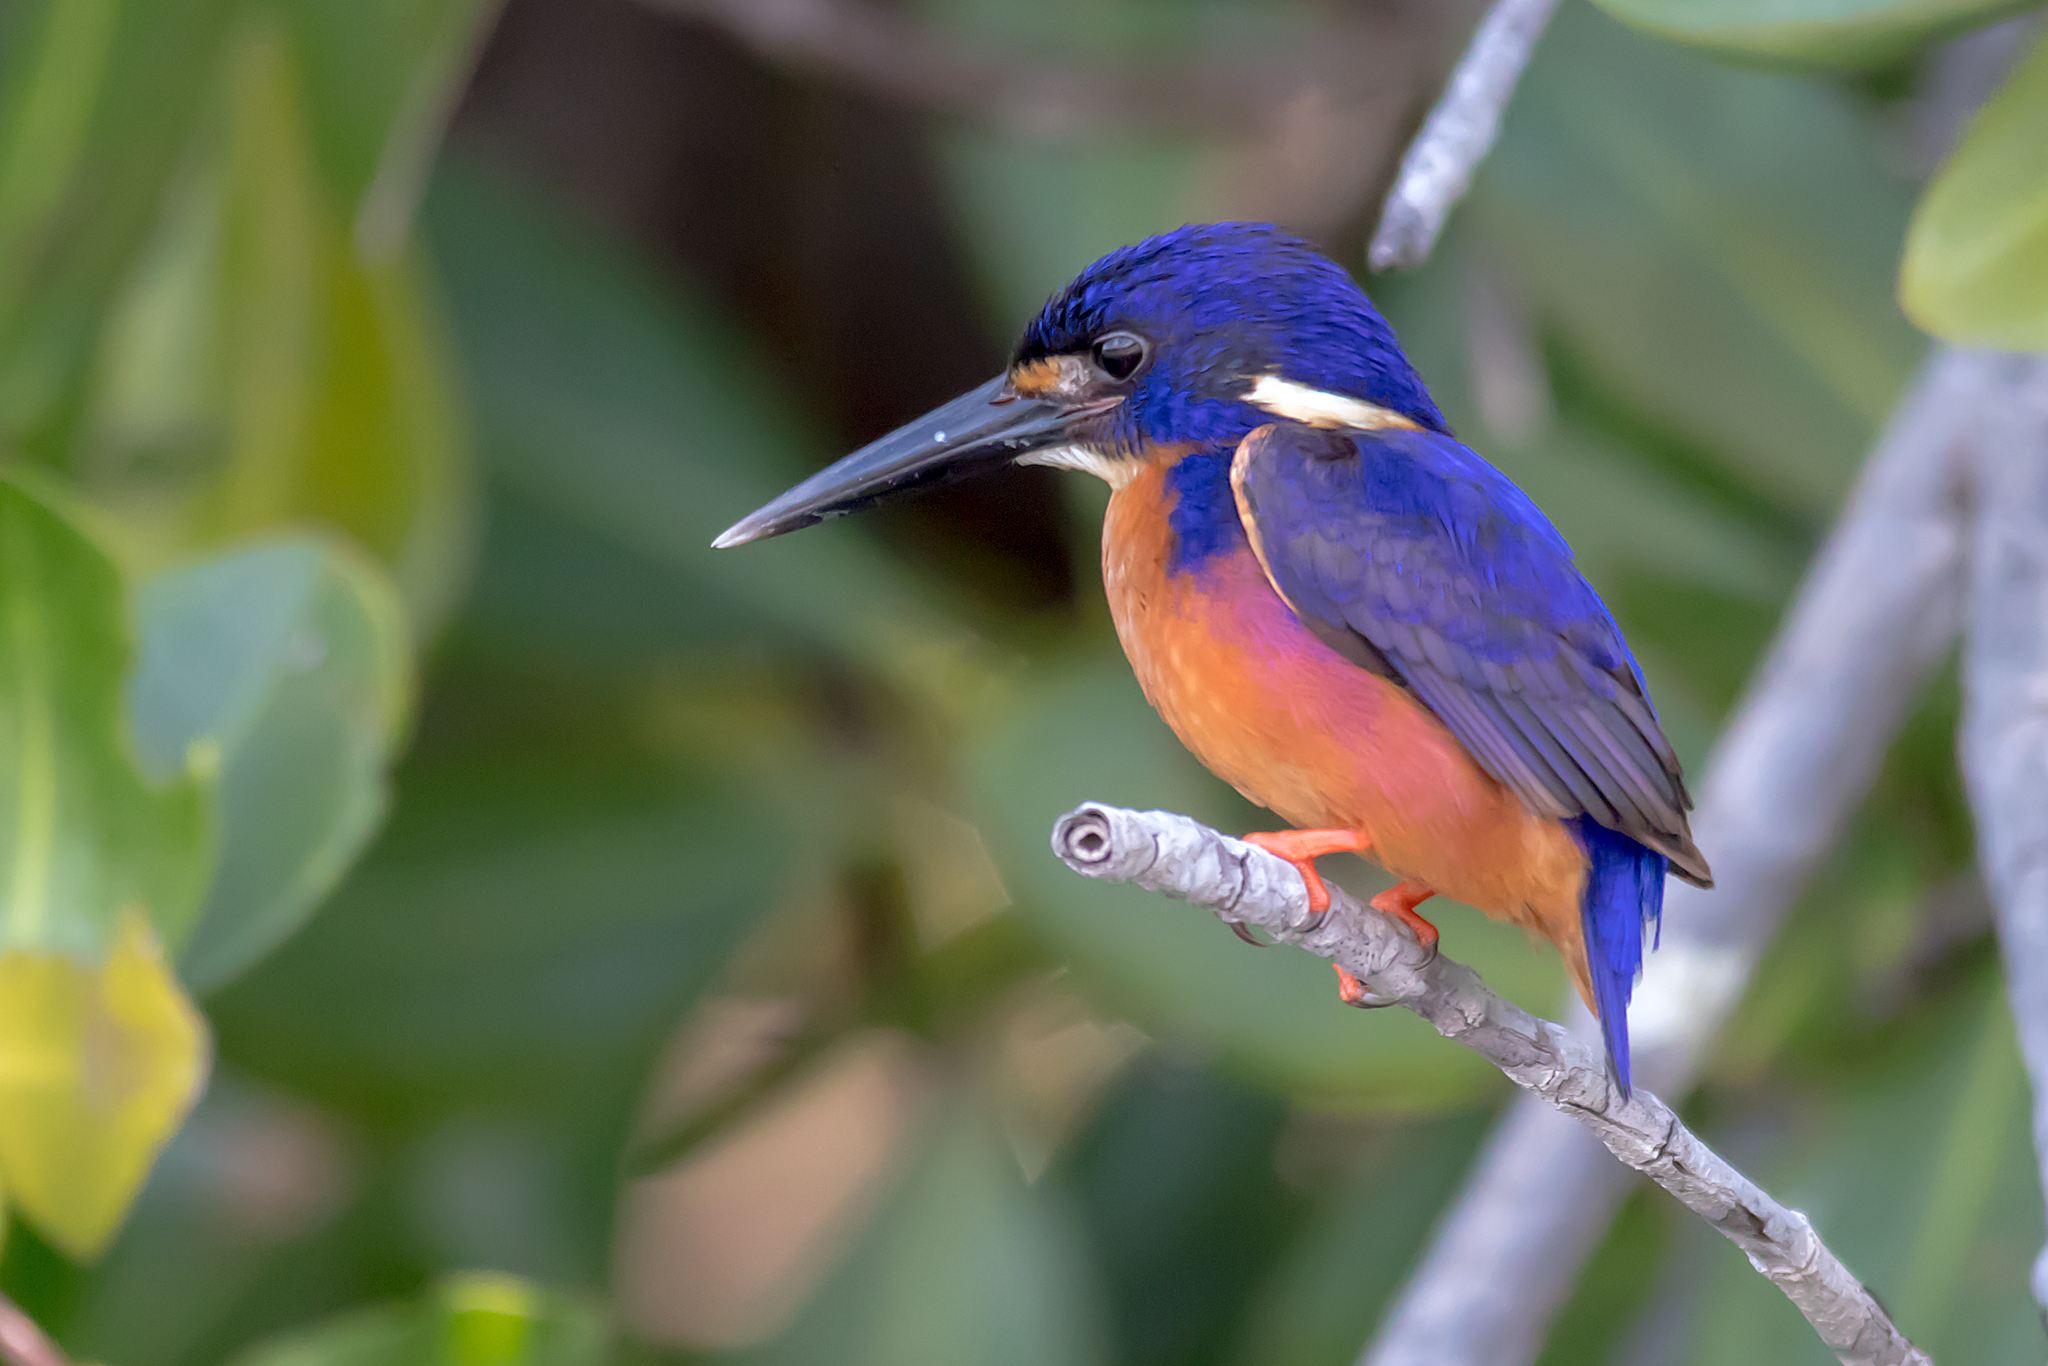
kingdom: Animalia
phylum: Chordata
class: Aves
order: Coraciiformes
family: Alcedinidae
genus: Ceyx
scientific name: Ceyx azureus
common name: Azure kingfisher
